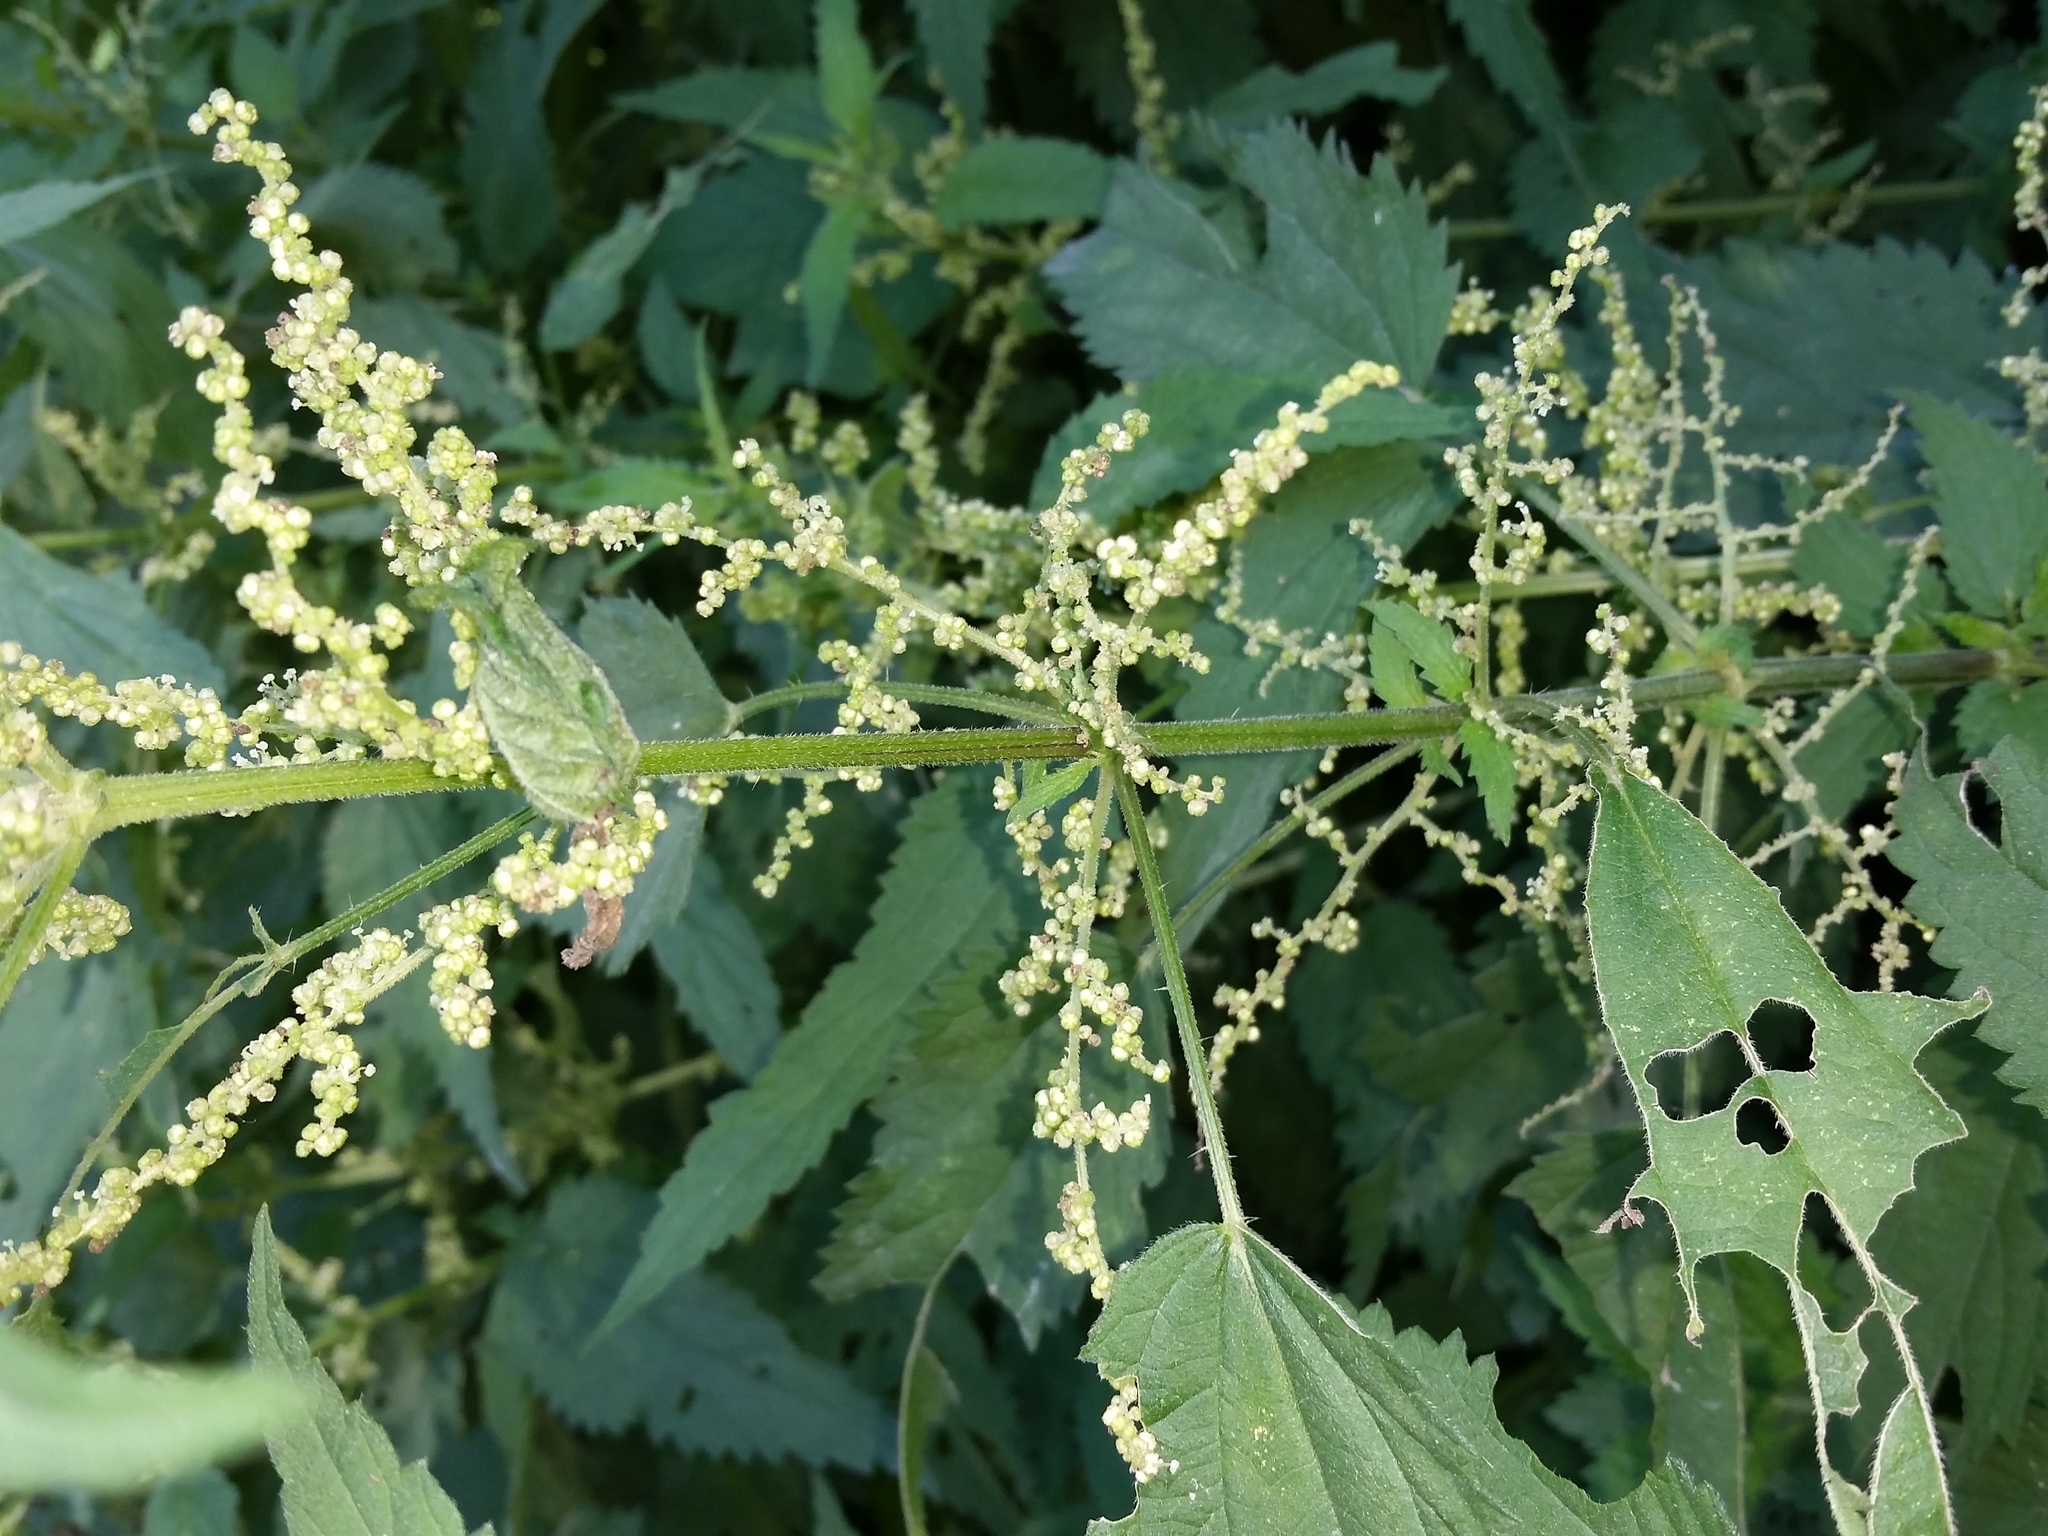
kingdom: Plantae
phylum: Tracheophyta
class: Magnoliopsida
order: Rosales
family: Urticaceae
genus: Urtica
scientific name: Urtica dioica
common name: Common nettle
